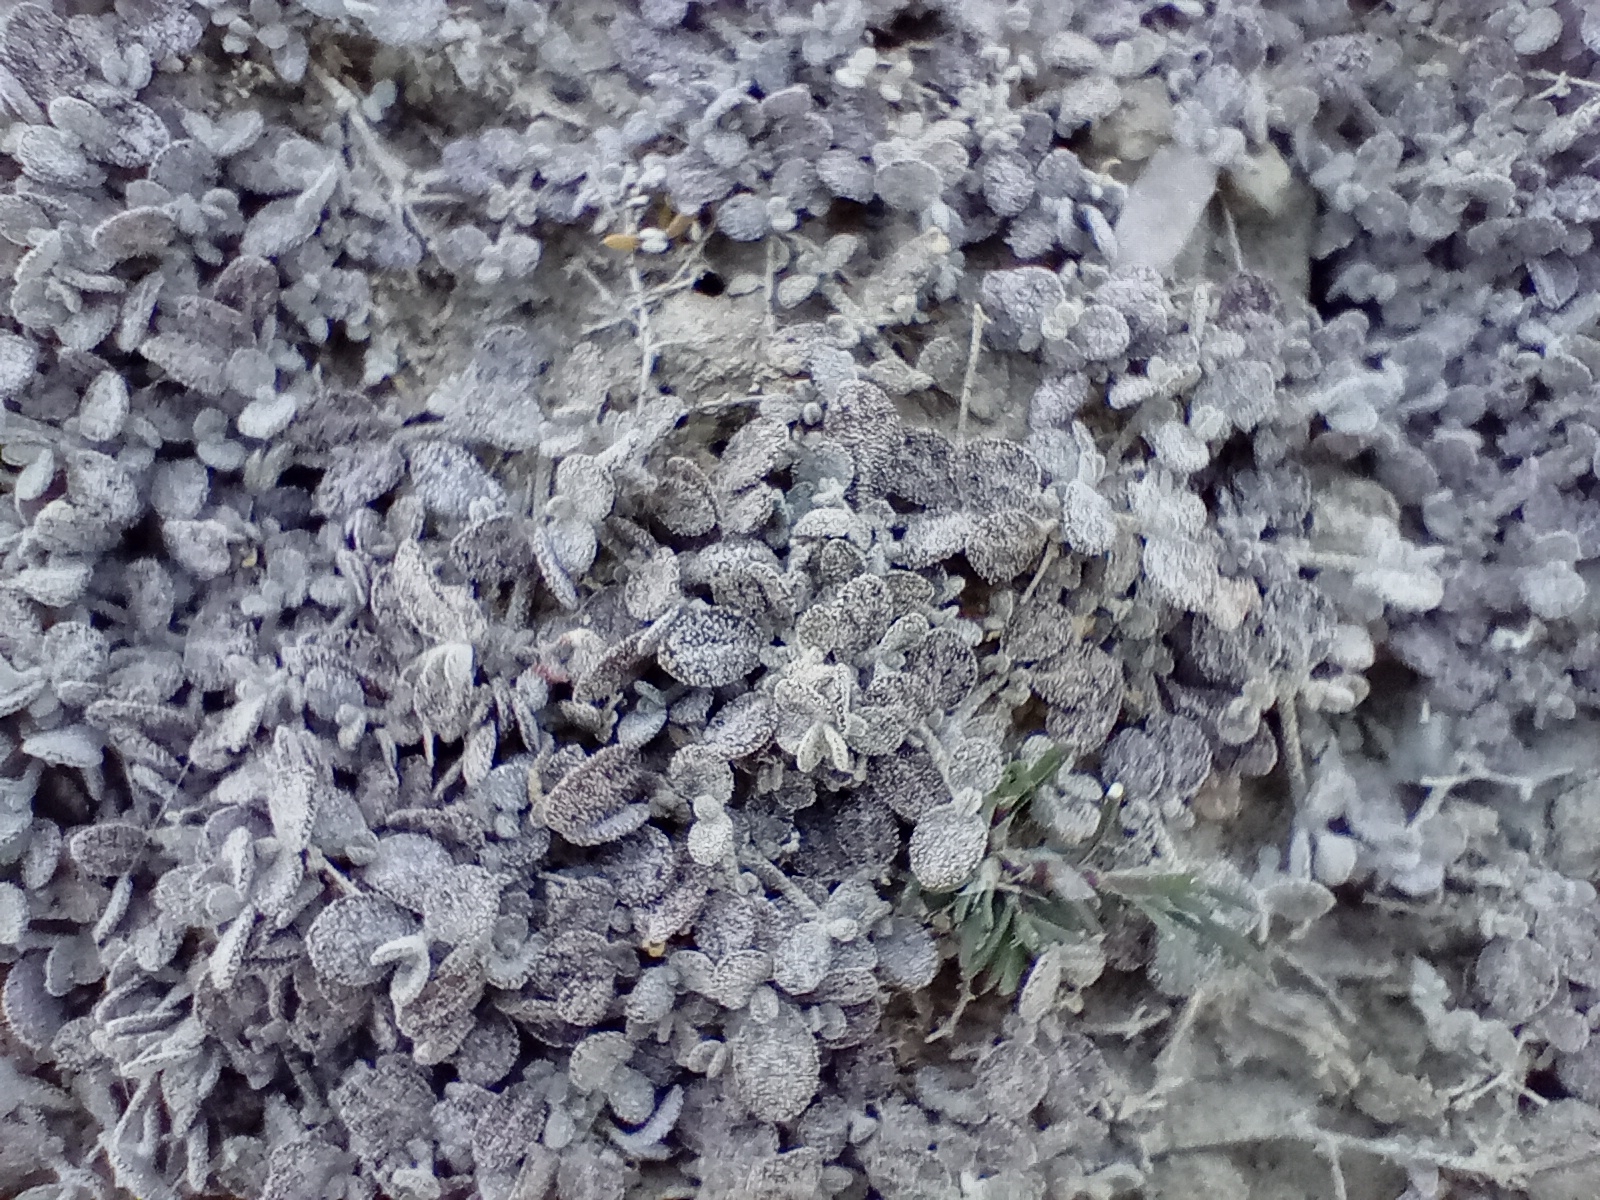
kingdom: Plantae
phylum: Tracheophyta
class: Magnoliopsida
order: Caryophyllales
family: Amaranthaceae
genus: Atriplex
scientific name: Atriplex buchananii
